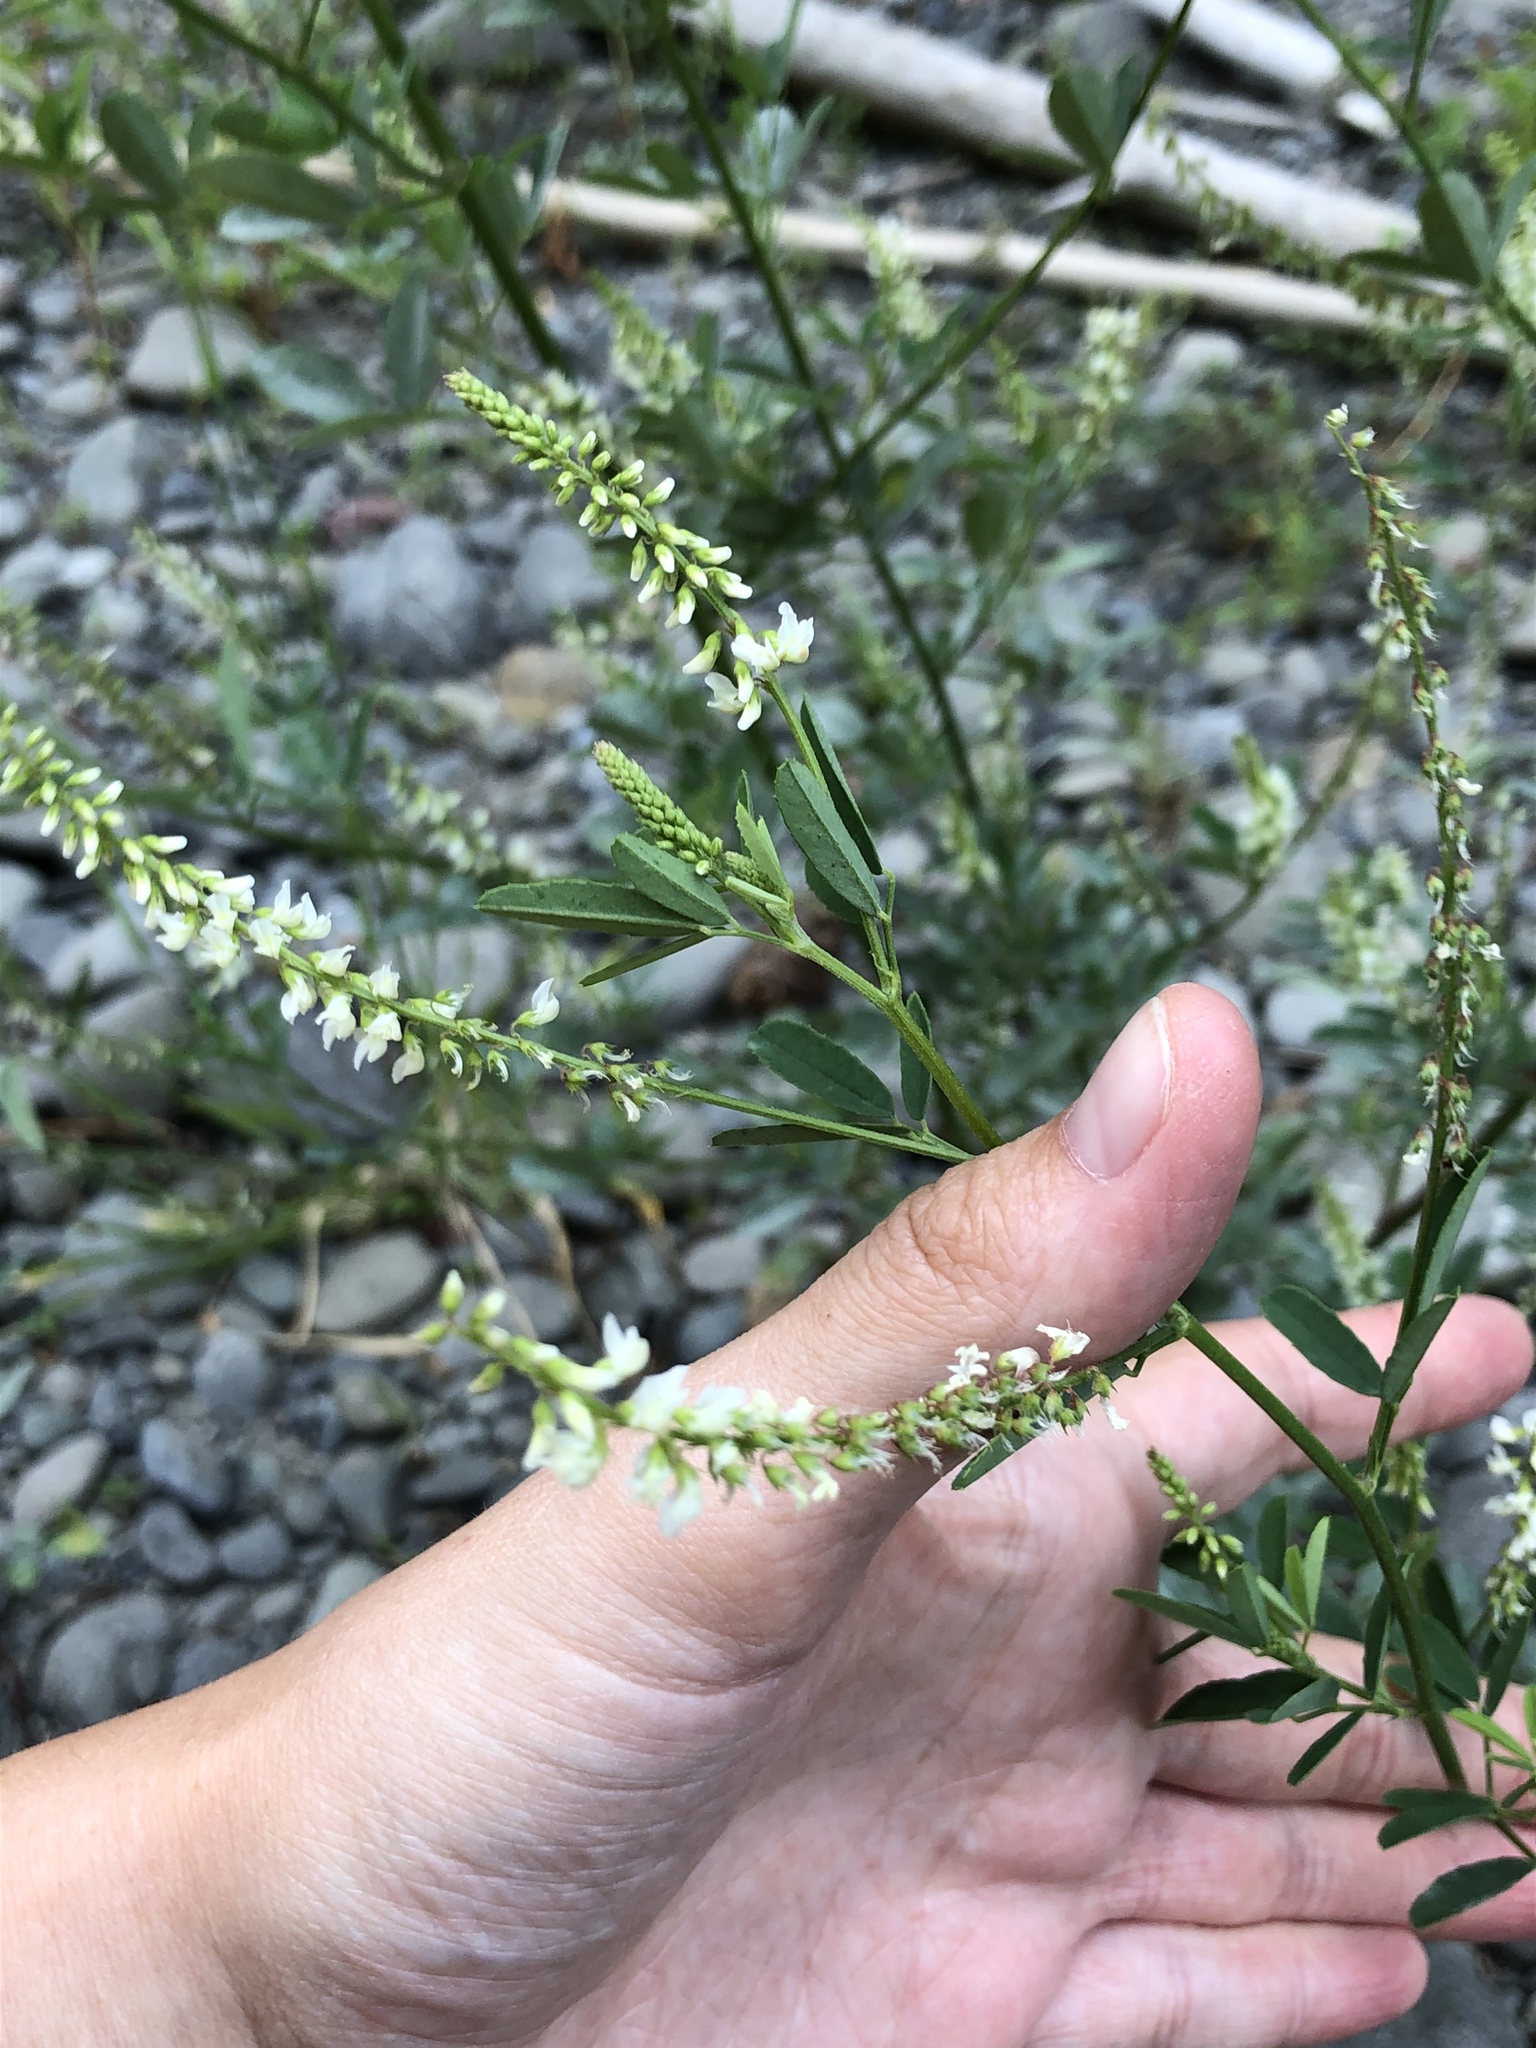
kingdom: Plantae
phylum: Tracheophyta
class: Magnoliopsida
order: Fabales
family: Fabaceae
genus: Melilotus
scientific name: Melilotus albus
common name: White melilot
